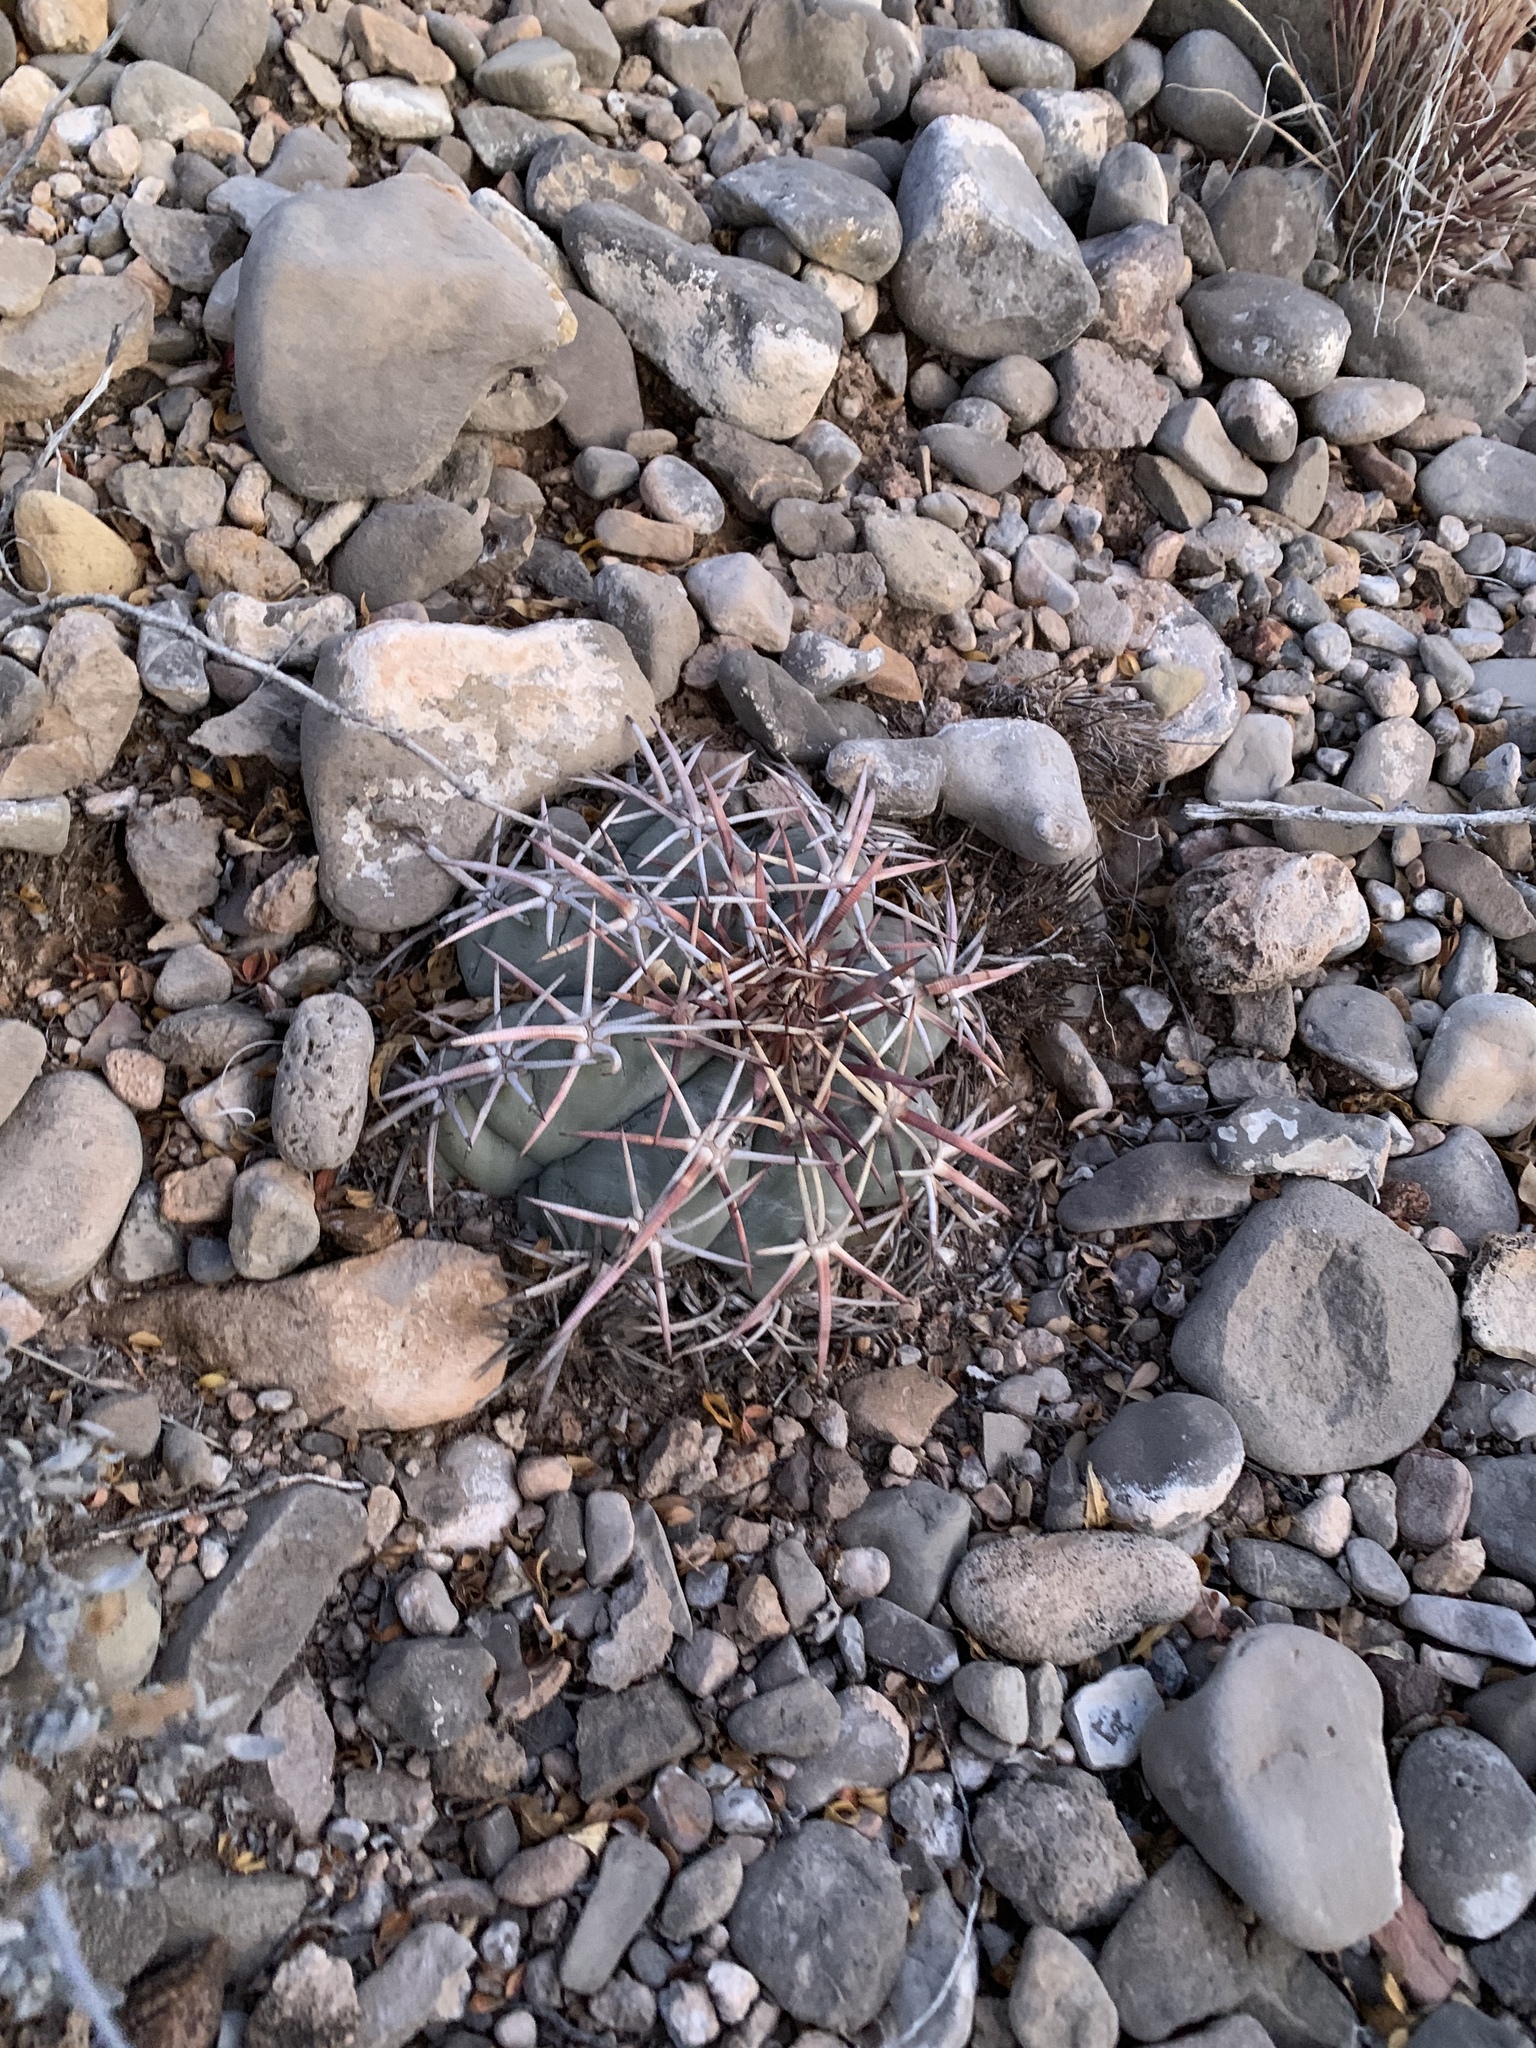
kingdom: Plantae
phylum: Tracheophyta
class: Magnoliopsida
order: Caryophyllales
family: Cactaceae
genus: Echinocactus
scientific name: Echinocactus horizonthalonius
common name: Devilshead
